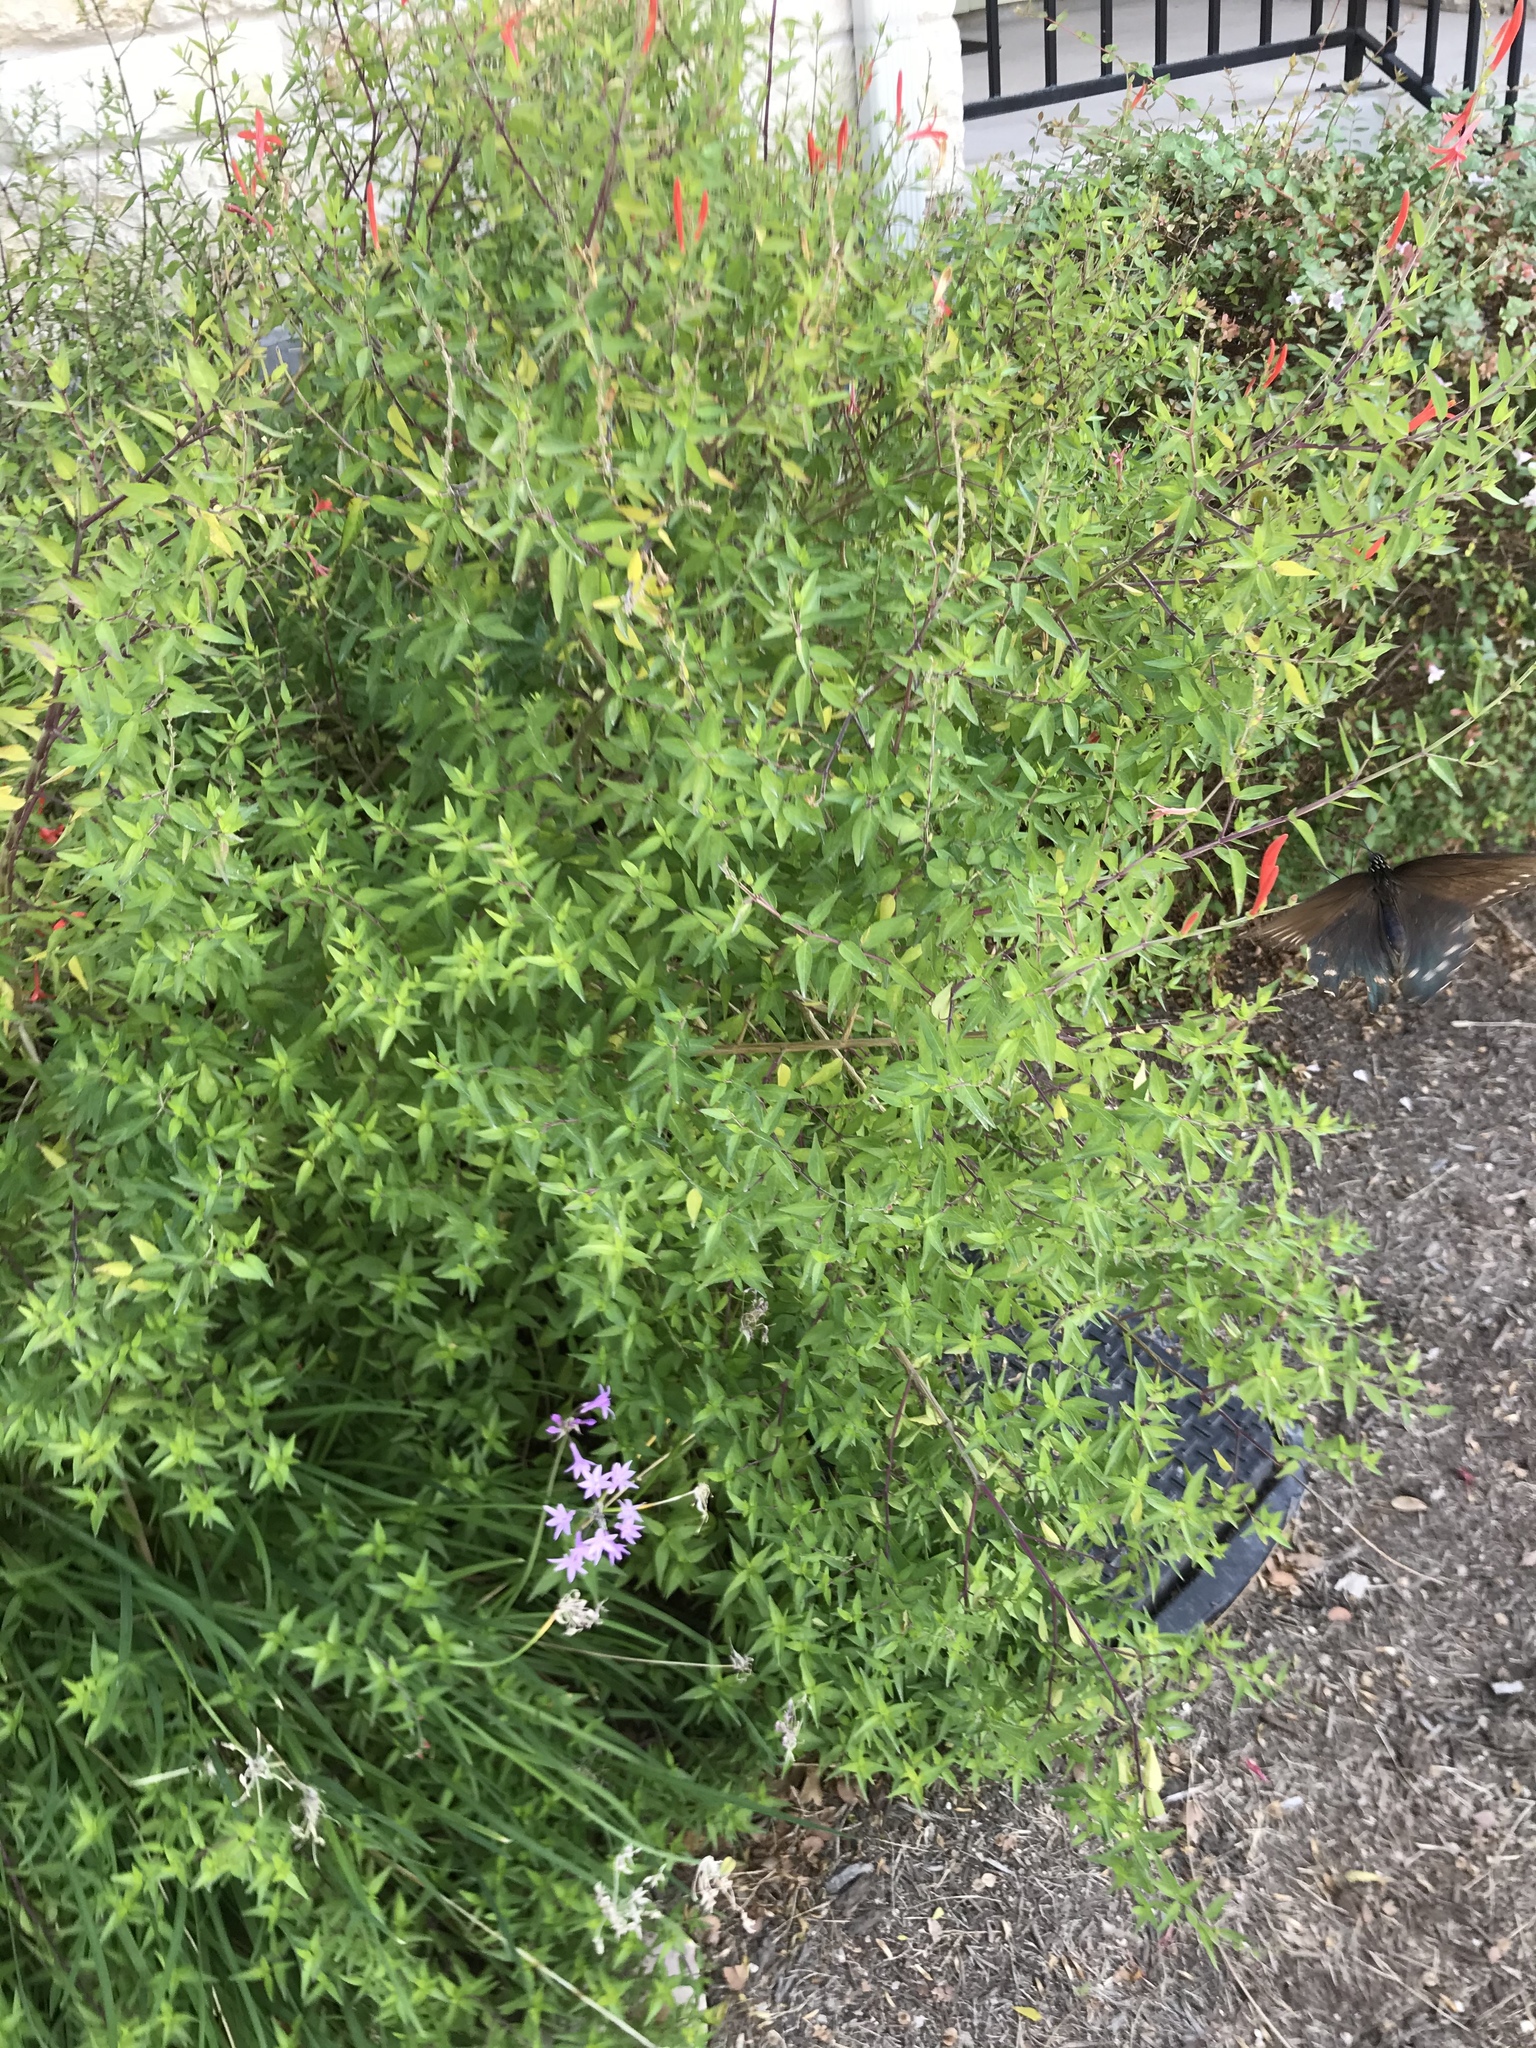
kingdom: Animalia
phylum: Arthropoda
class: Insecta
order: Lepidoptera
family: Papilionidae
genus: Battus
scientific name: Battus philenor
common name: Pipevine swallowtail
